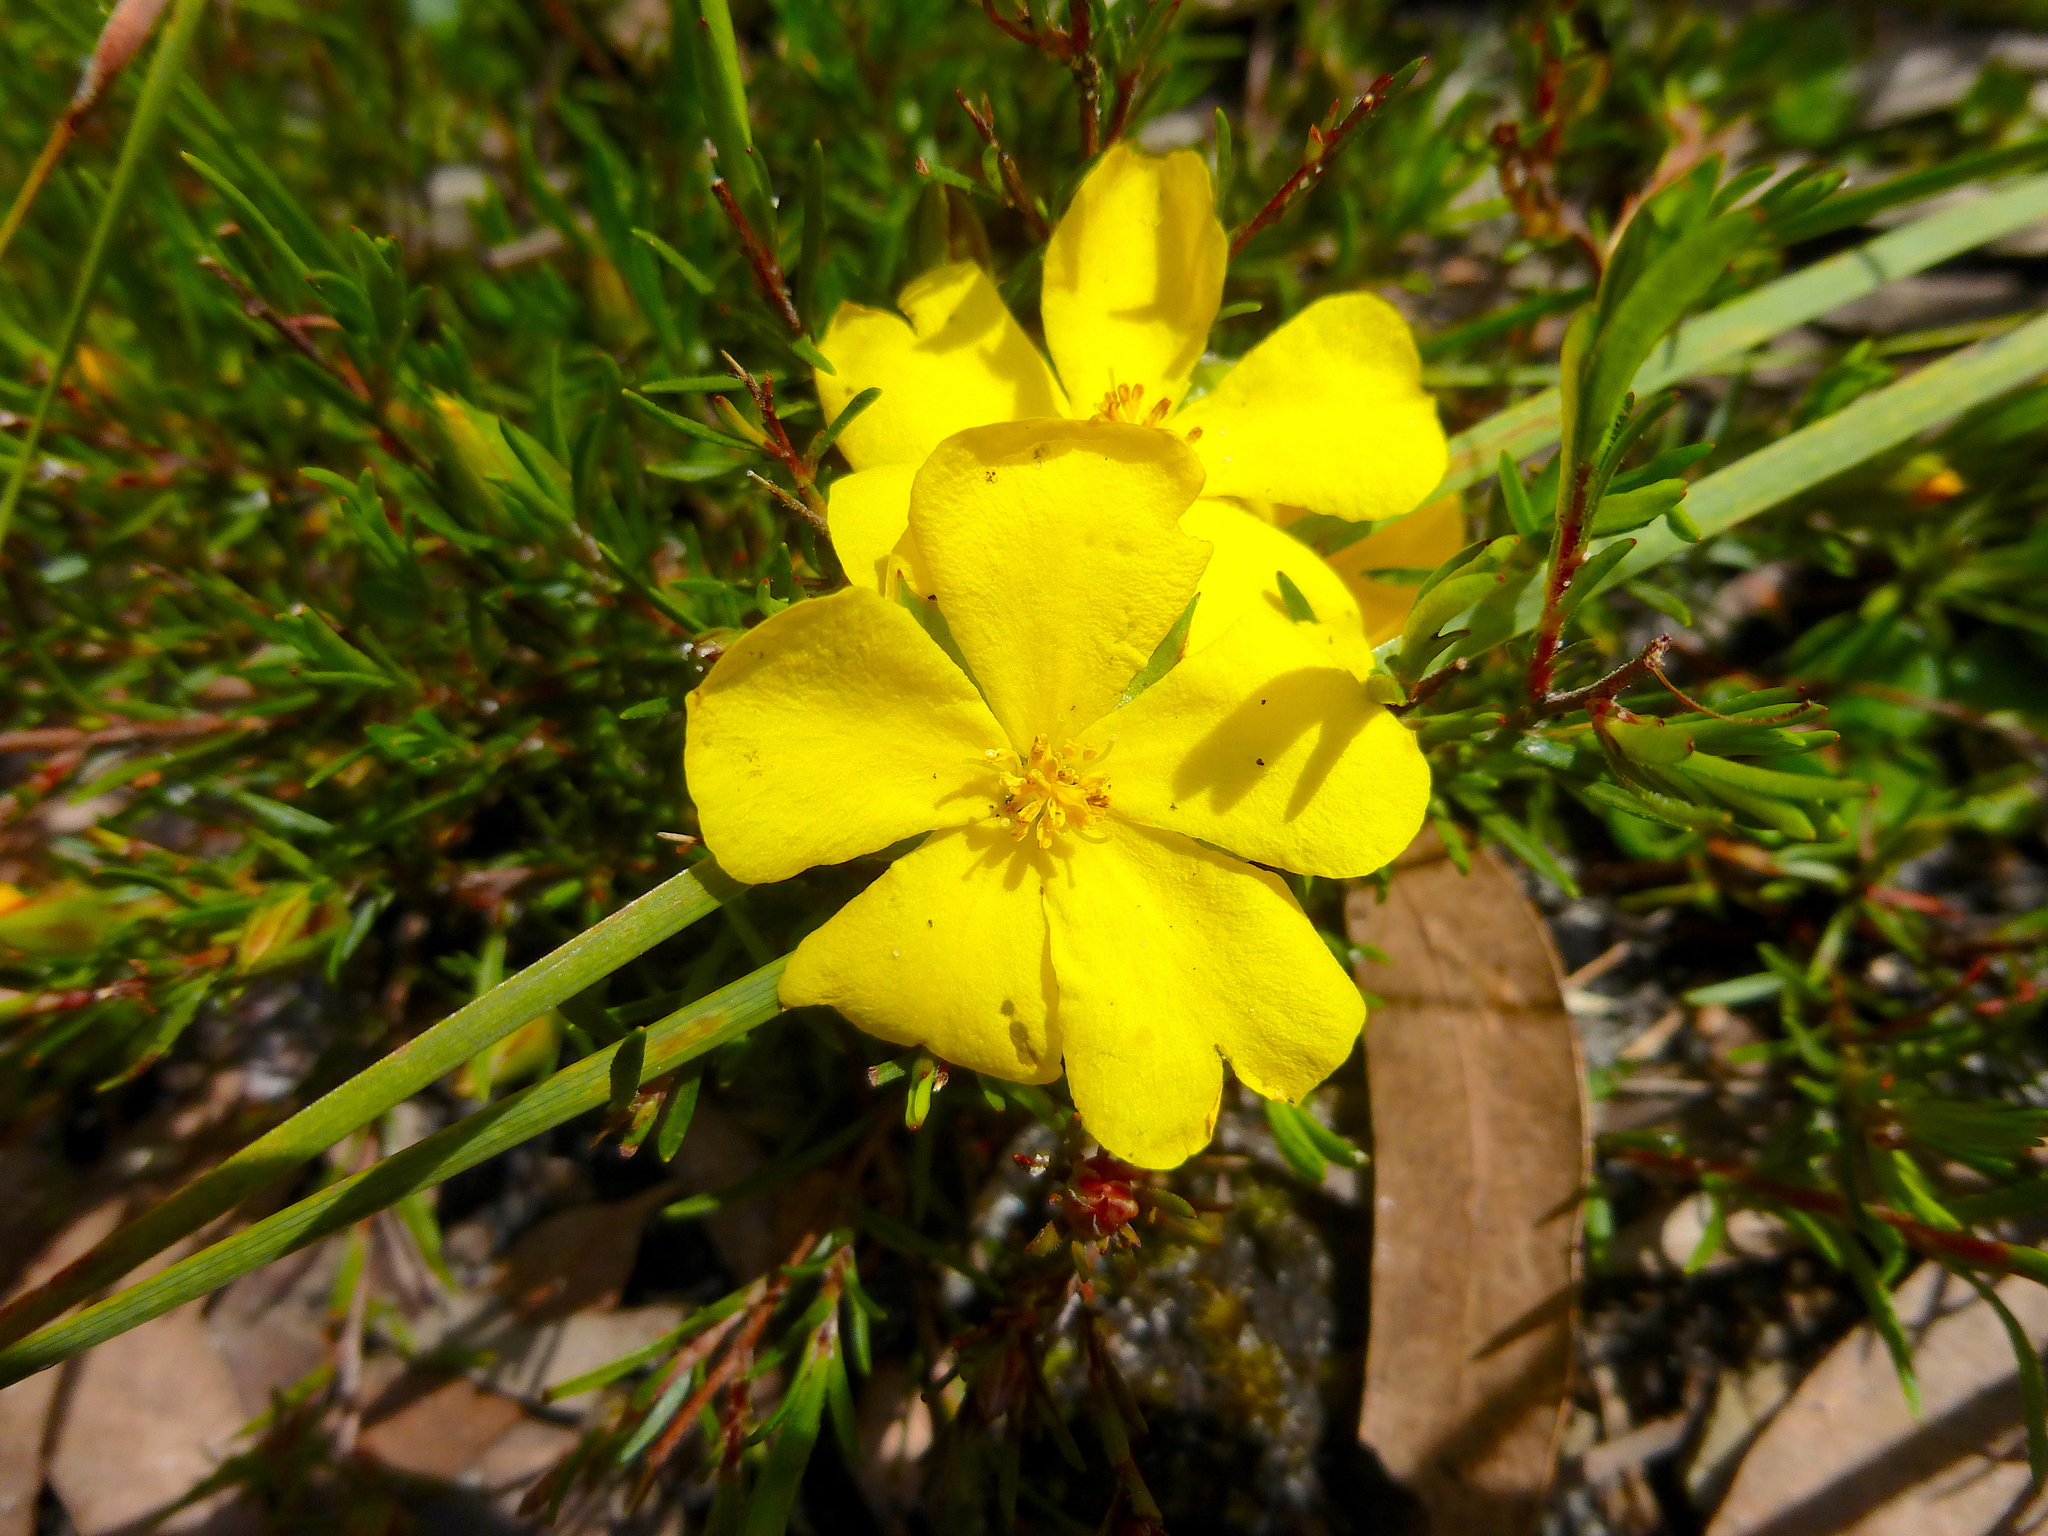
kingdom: Plantae
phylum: Tracheophyta
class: Magnoliopsida
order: Dilleniales
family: Dilleniaceae
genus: Hibbertia
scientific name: Hibbertia procumbens
